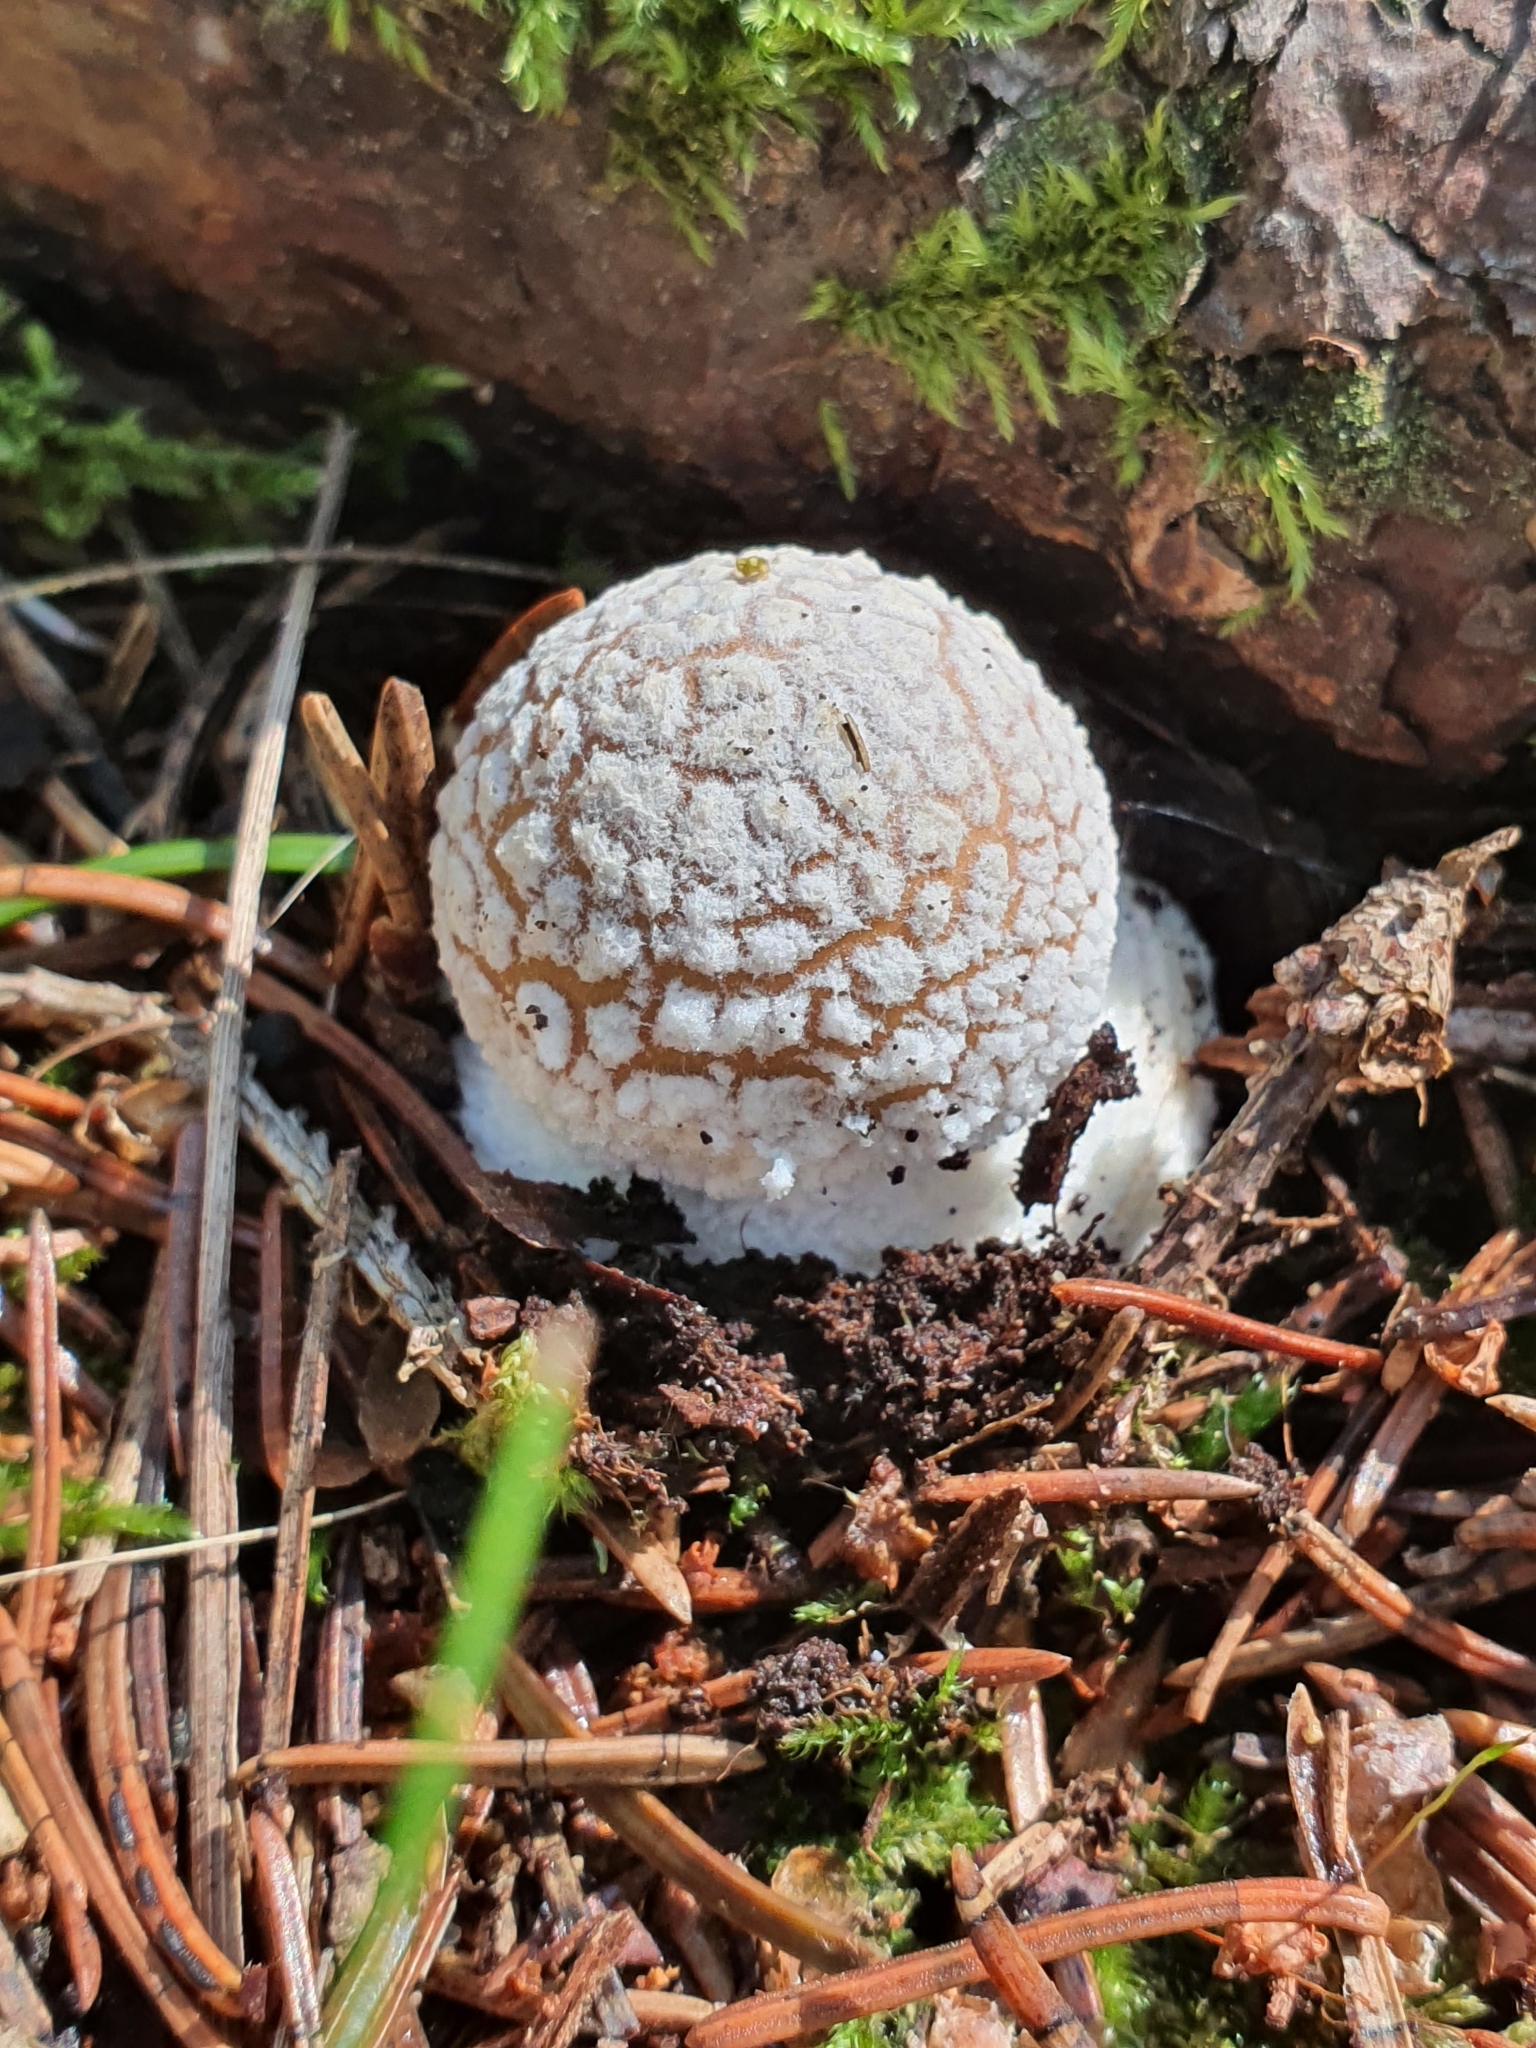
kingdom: Fungi
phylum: Basidiomycota
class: Agaricomycetes
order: Agaricales
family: Amanitaceae
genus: Amanita
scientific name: Amanita pantherina
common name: Panthercap
